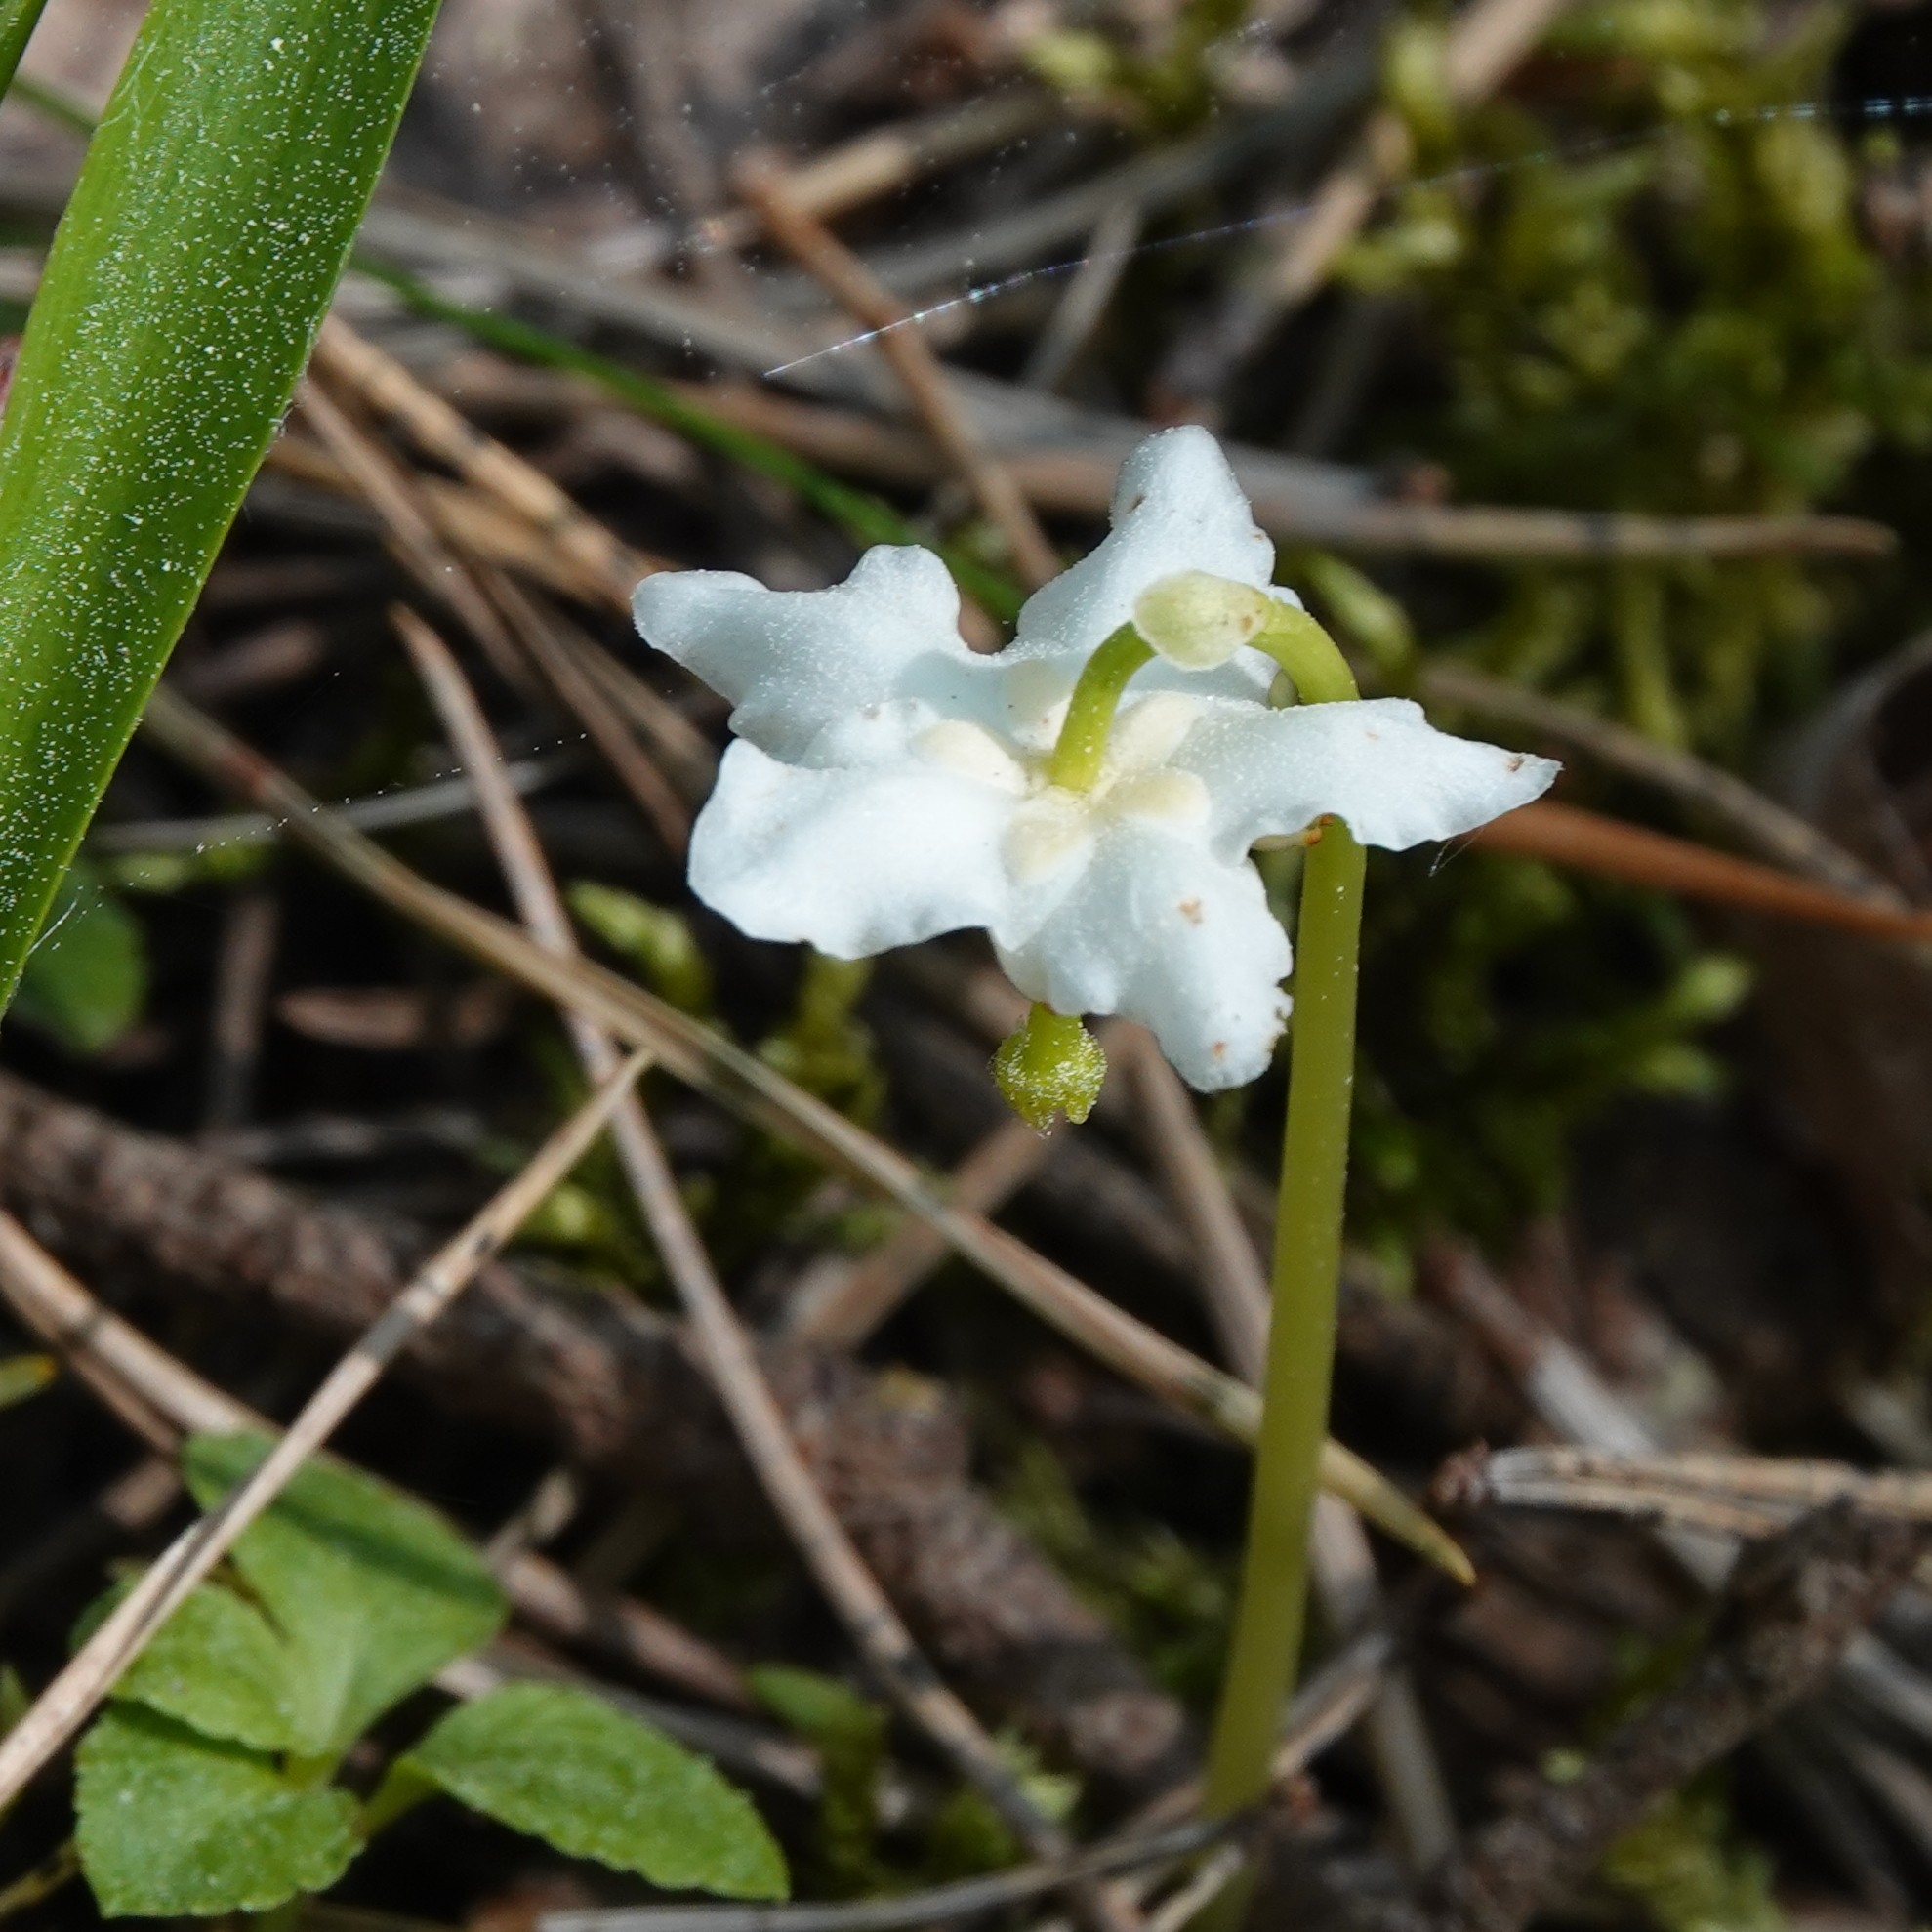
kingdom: Plantae
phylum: Tracheophyta
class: Magnoliopsida
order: Ericales
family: Ericaceae
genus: Moneses
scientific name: Moneses uniflora
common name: One-flowered wintergreen
